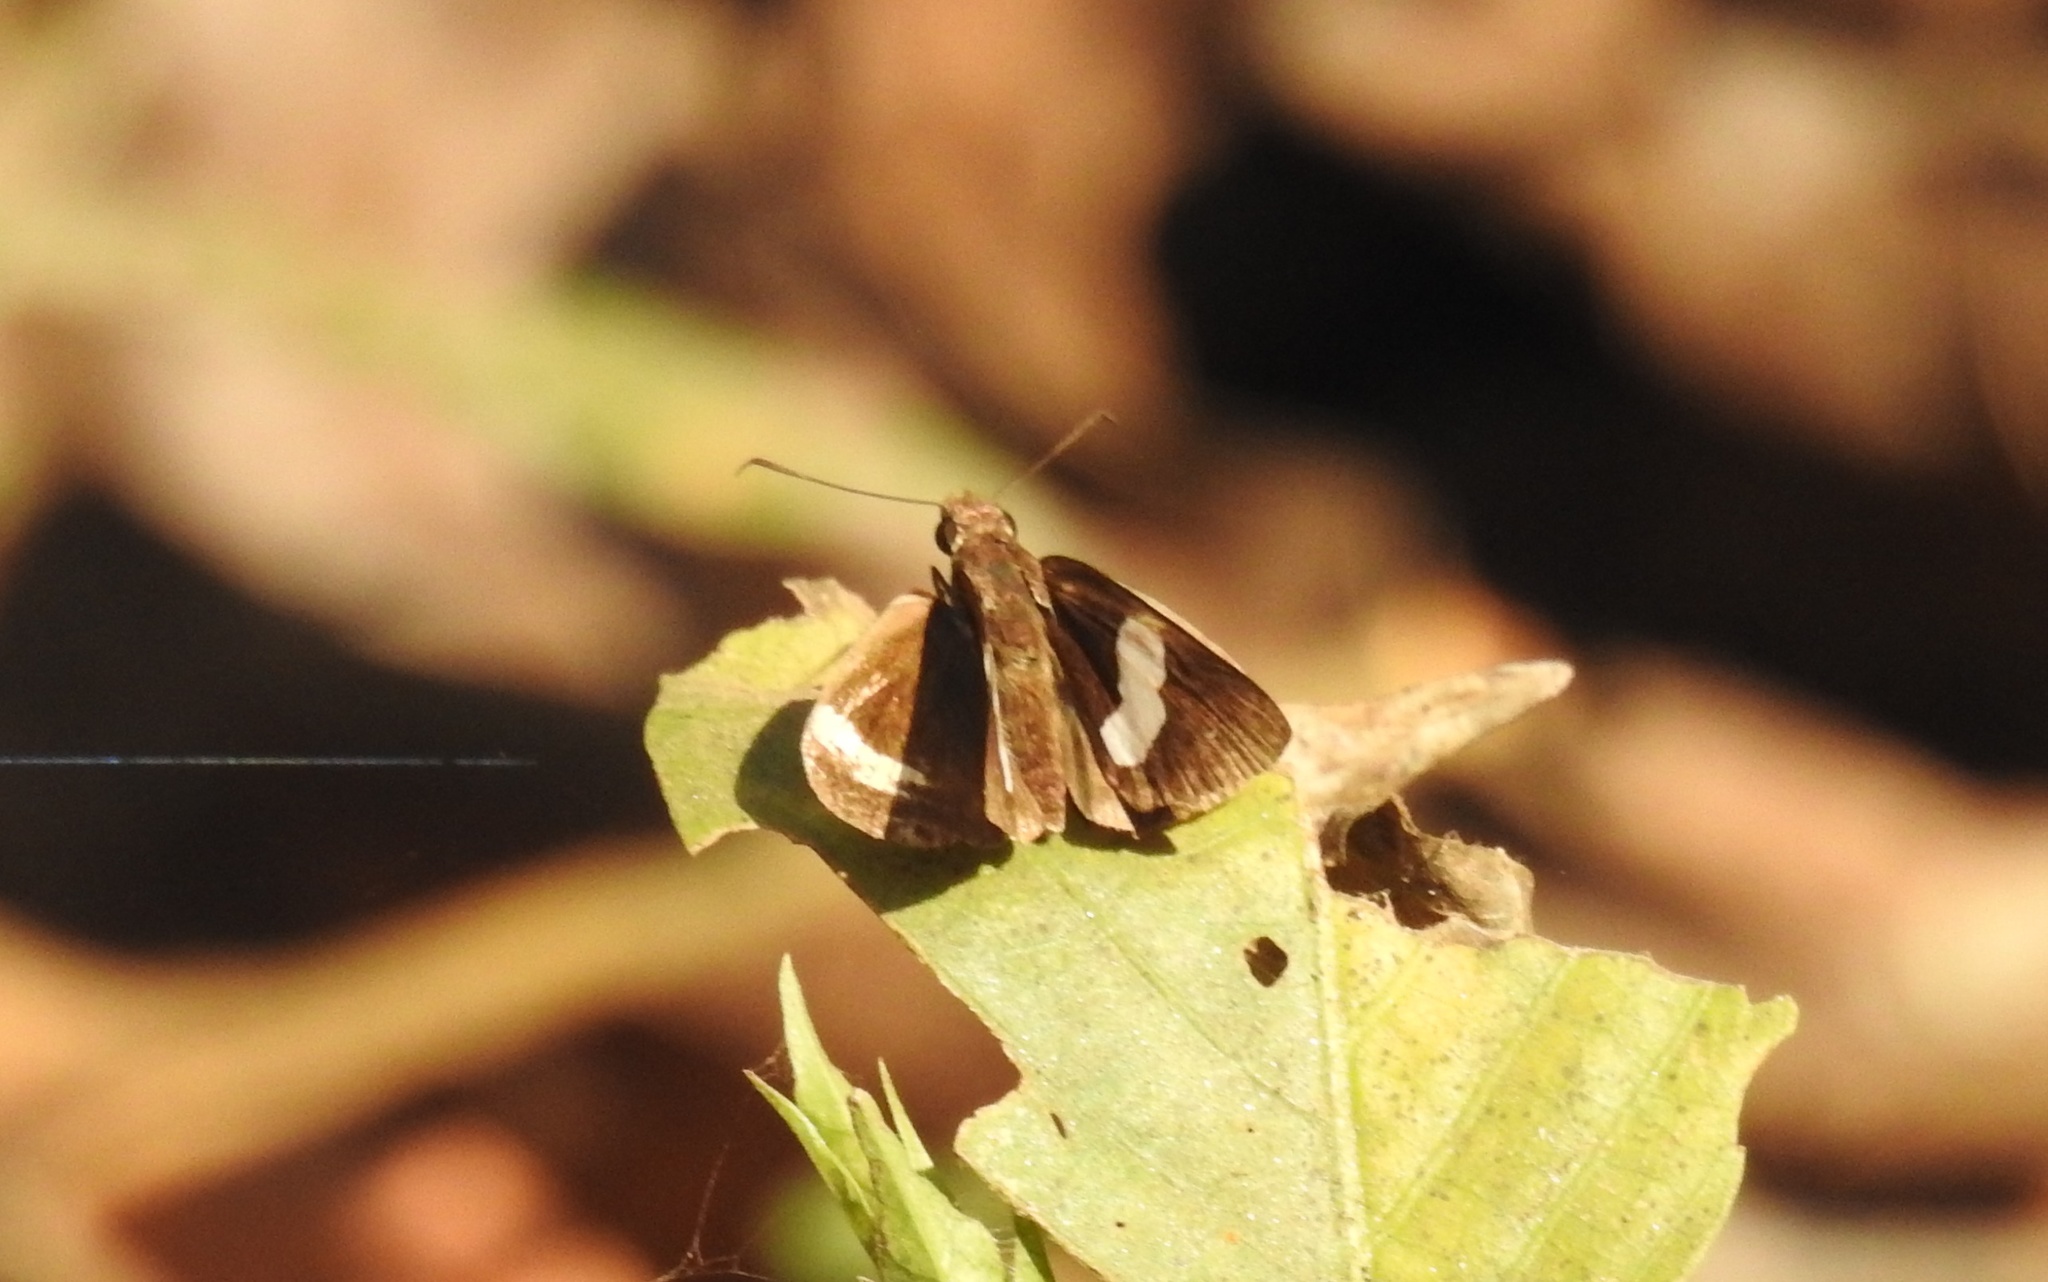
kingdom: Animalia
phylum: Arthropoda
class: Insecta
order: Lepidoptera
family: Hesperiidae
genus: Notocrypta
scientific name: Notocrypta paralysos
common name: Common banded demon
